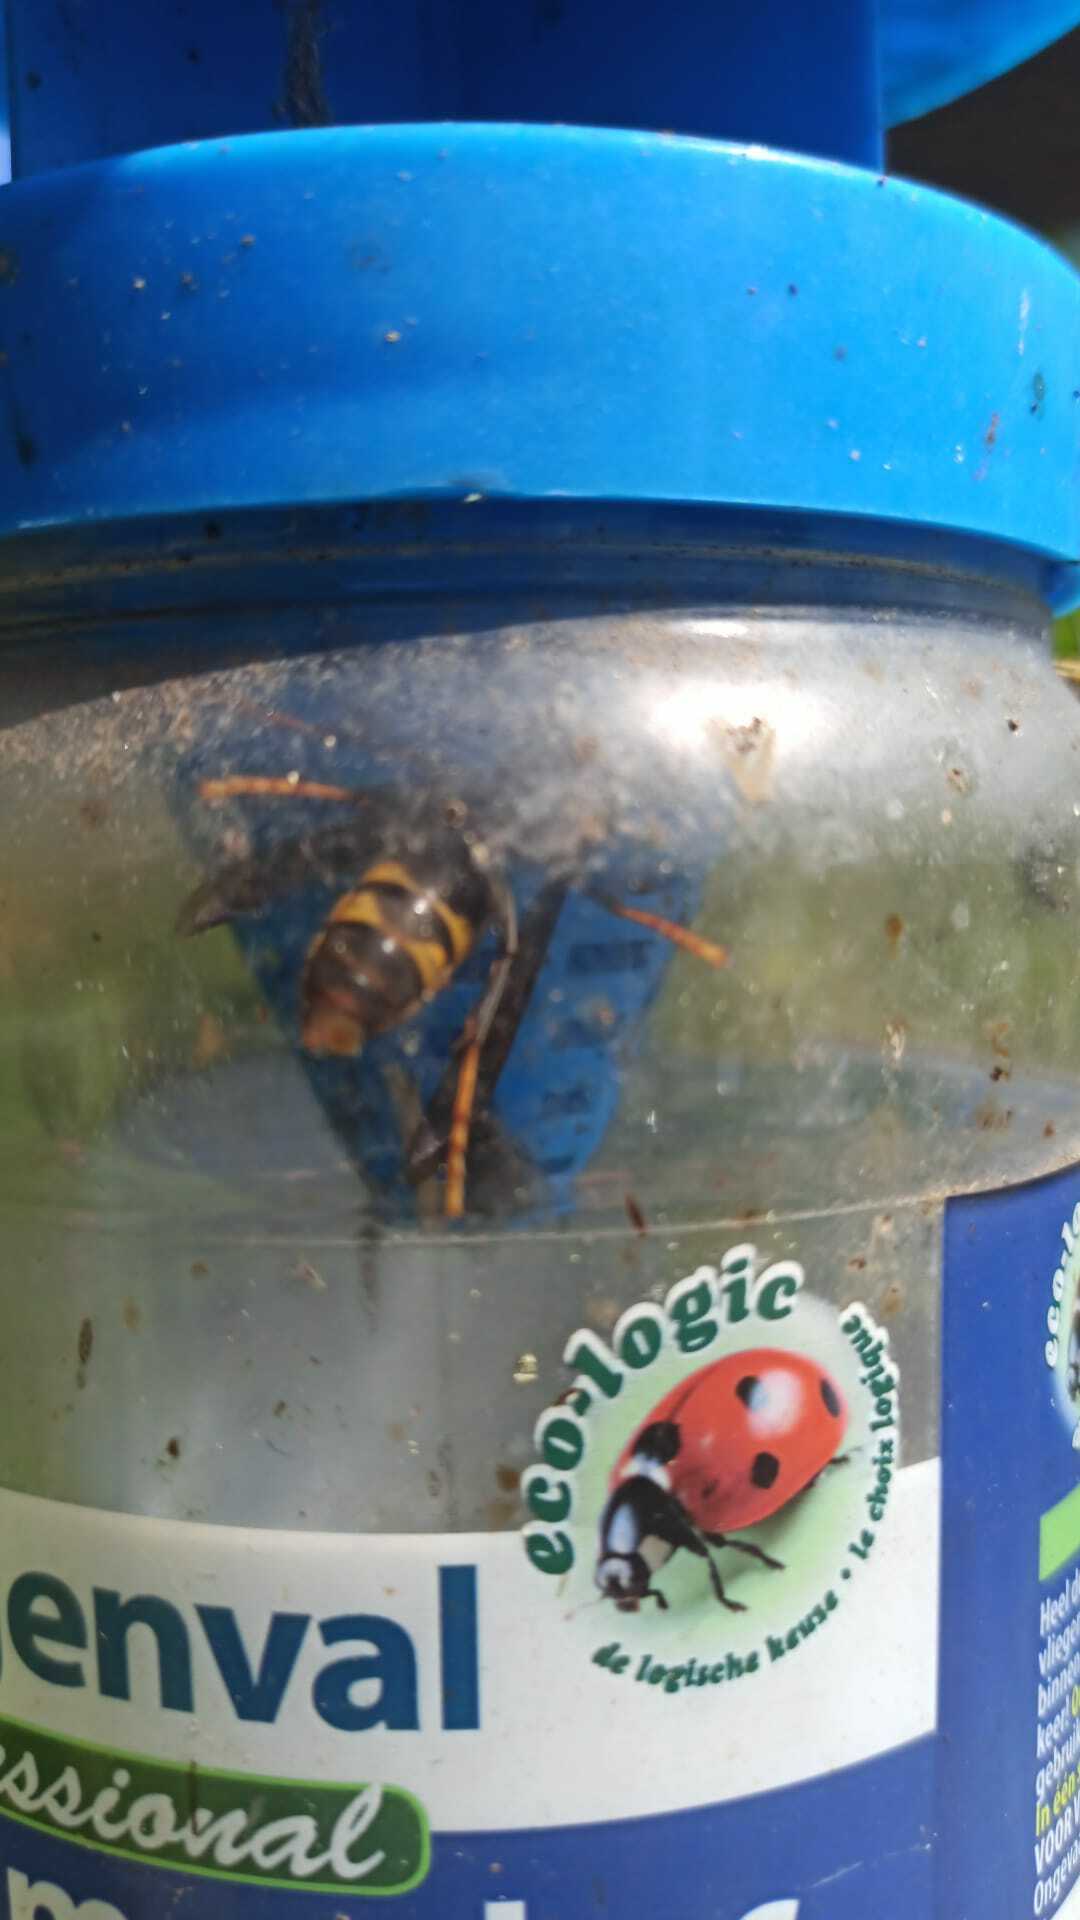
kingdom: Animalia
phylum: Arthropoda
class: Insecta
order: Hymenoptera
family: Vespidae
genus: Vespa
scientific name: Vespa velutina
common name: Asian hornet
